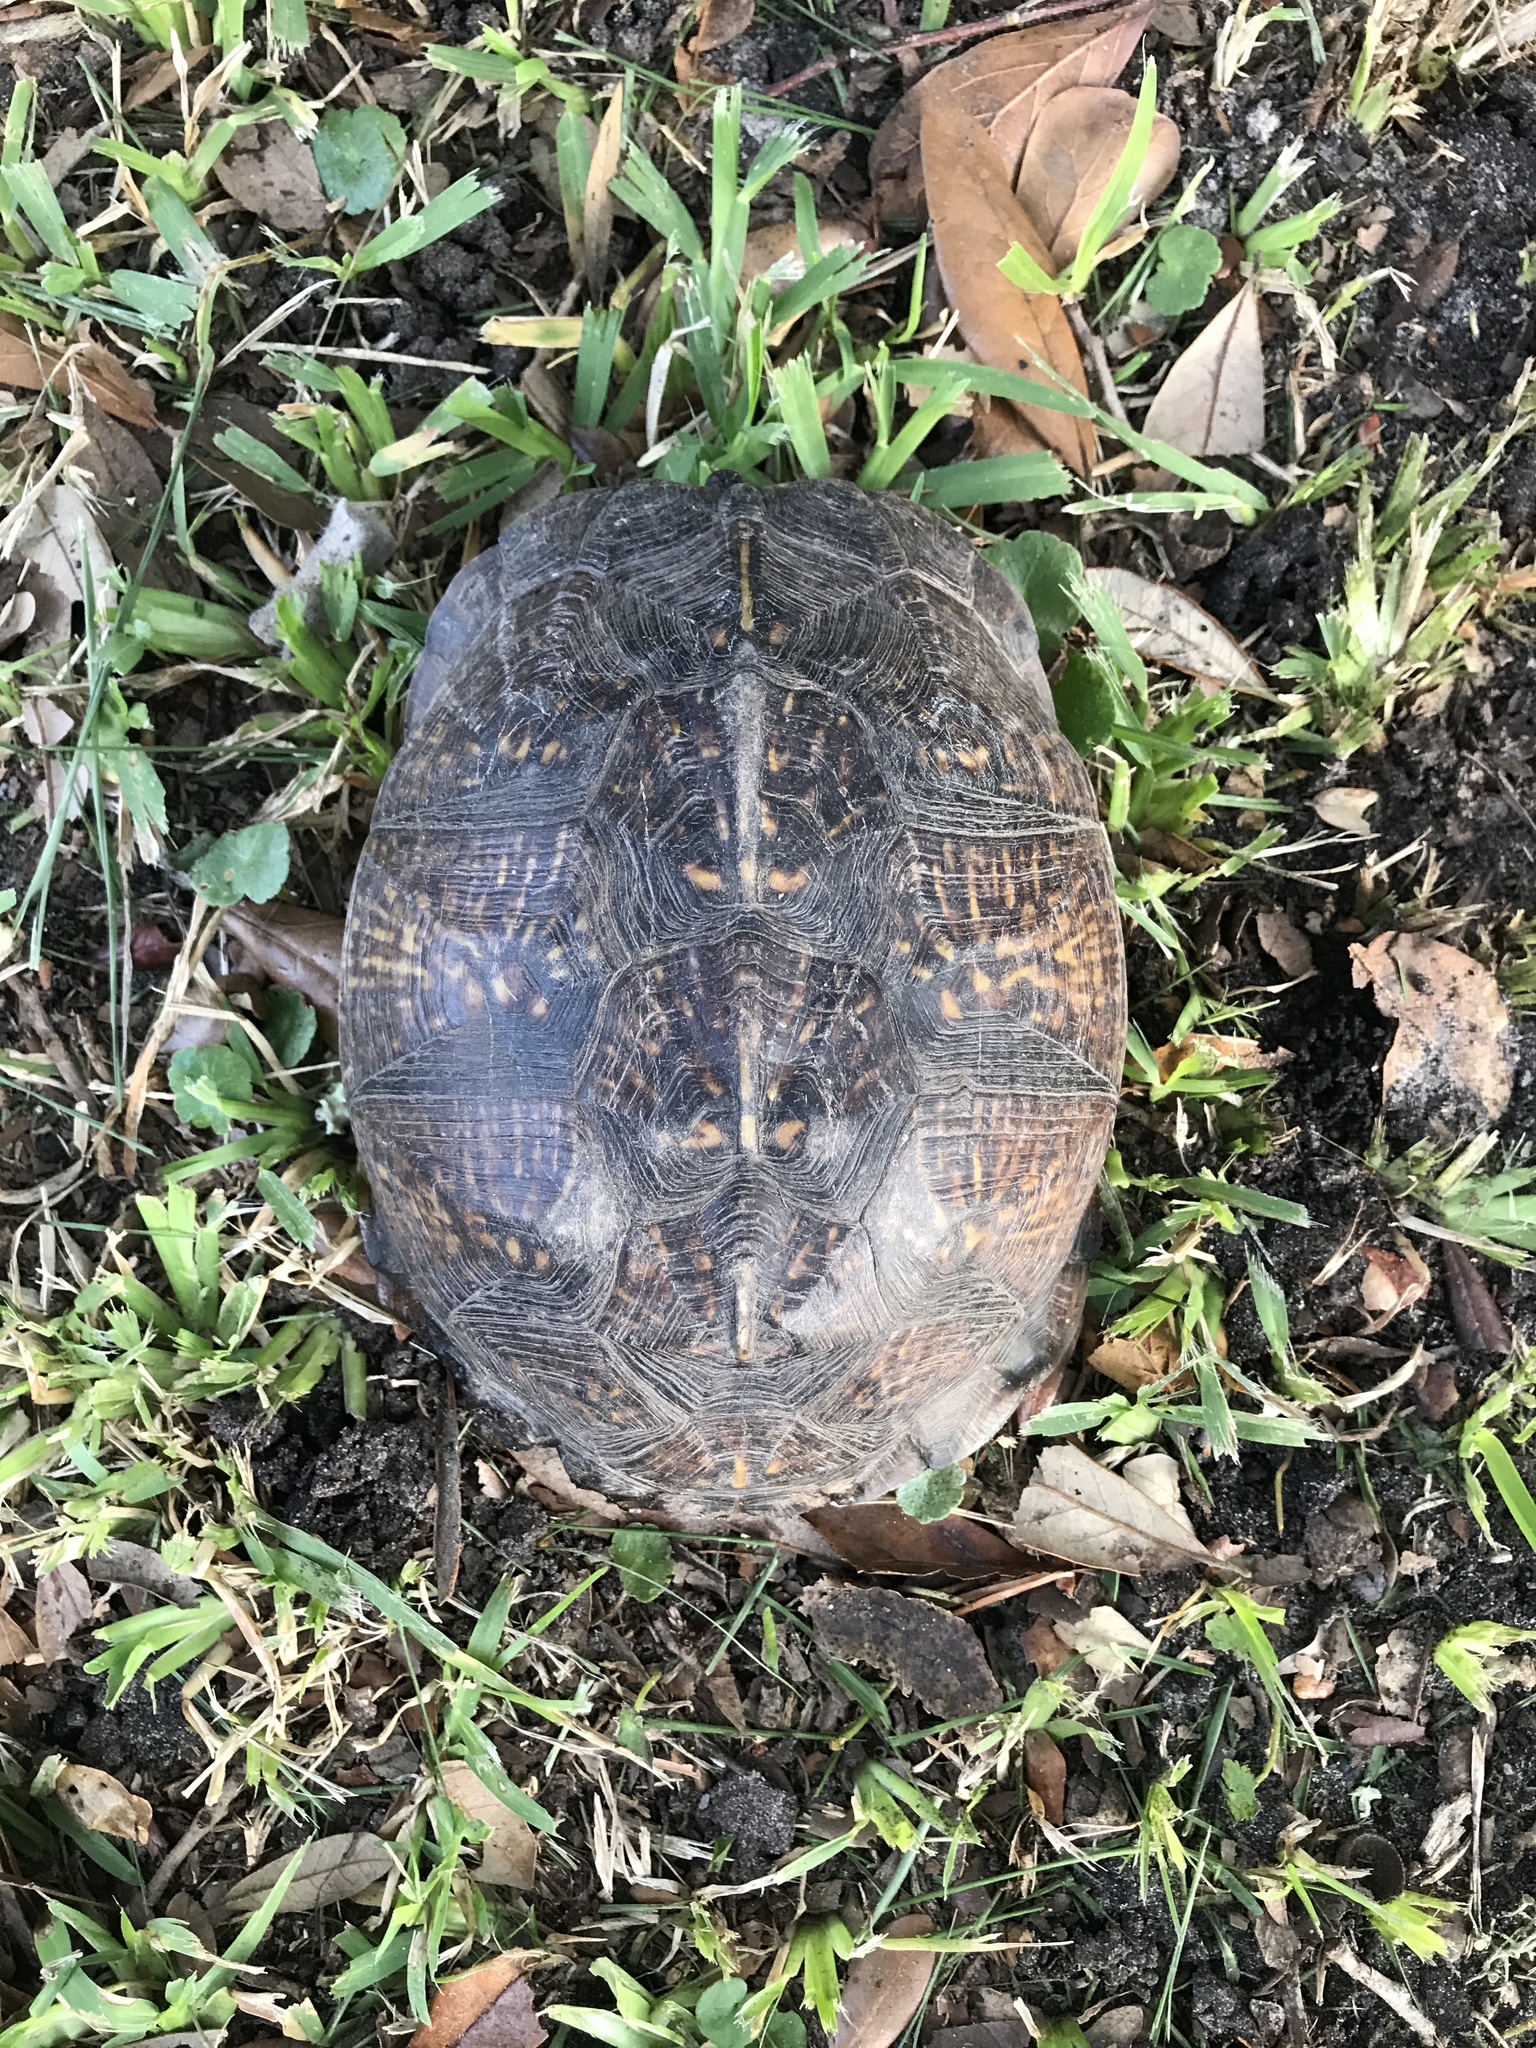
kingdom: Animalia
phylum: Chordata
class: Testudines
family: Emydidae
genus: Terrapene
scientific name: Terrapene carolina
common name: Common box turtle
